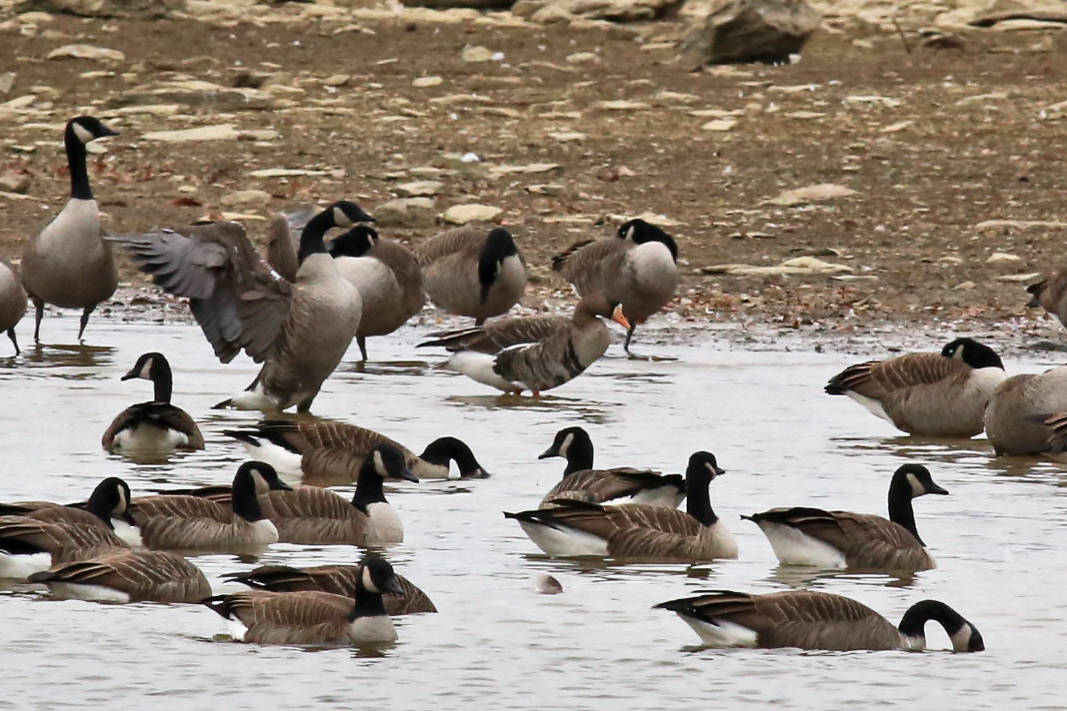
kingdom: Animalia
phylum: Chordata
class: Aves
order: Anseriformes
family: Anatidae
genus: Anser
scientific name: Anser albifrons
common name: Greater white-fronted goose
